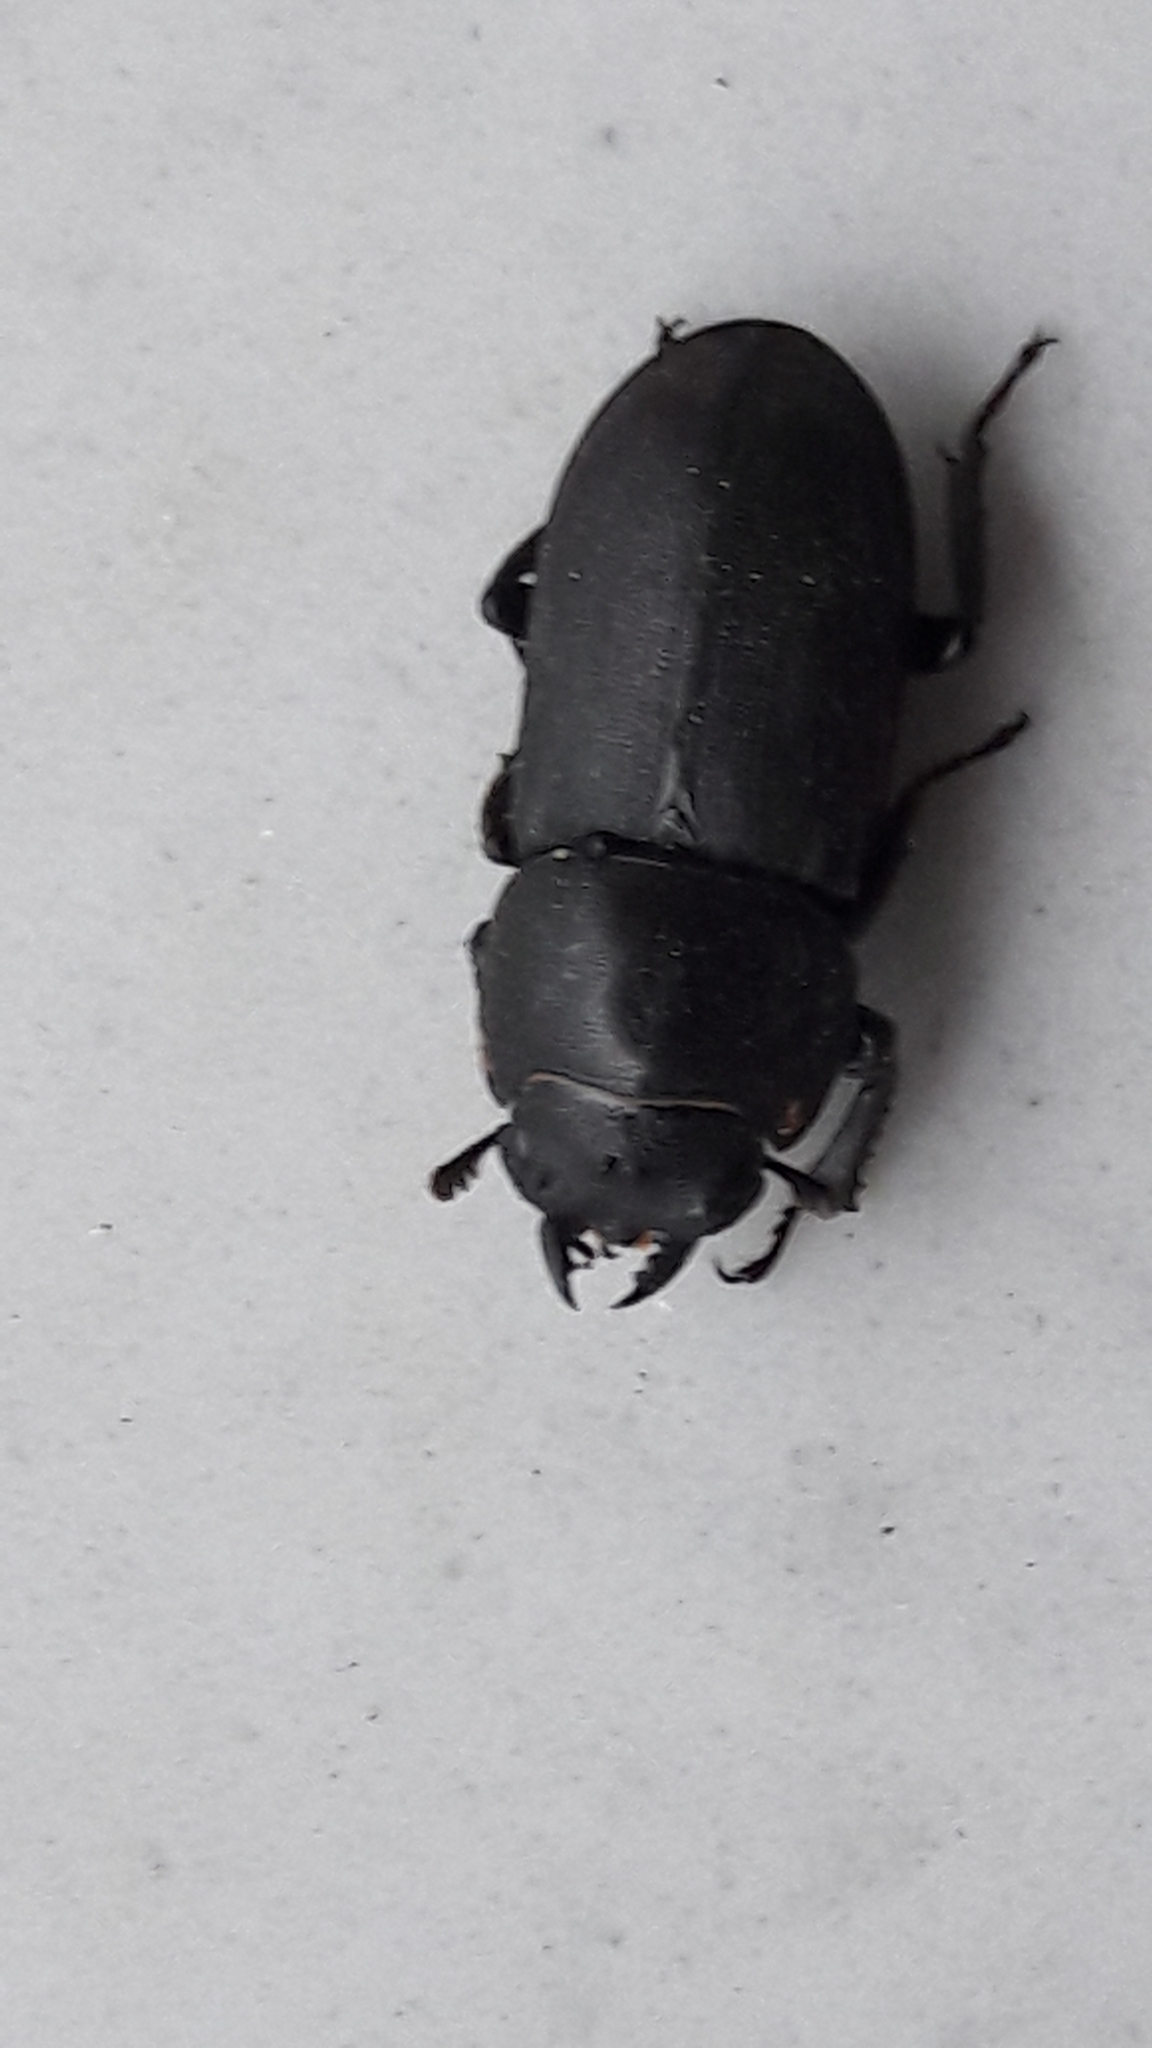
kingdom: Animalia
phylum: Arthropoda
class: Insecta
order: Coleoptera
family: Lucanidae
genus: Dorcus
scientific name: Dorcus parallelipipedus
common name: Lesser stag beetle
